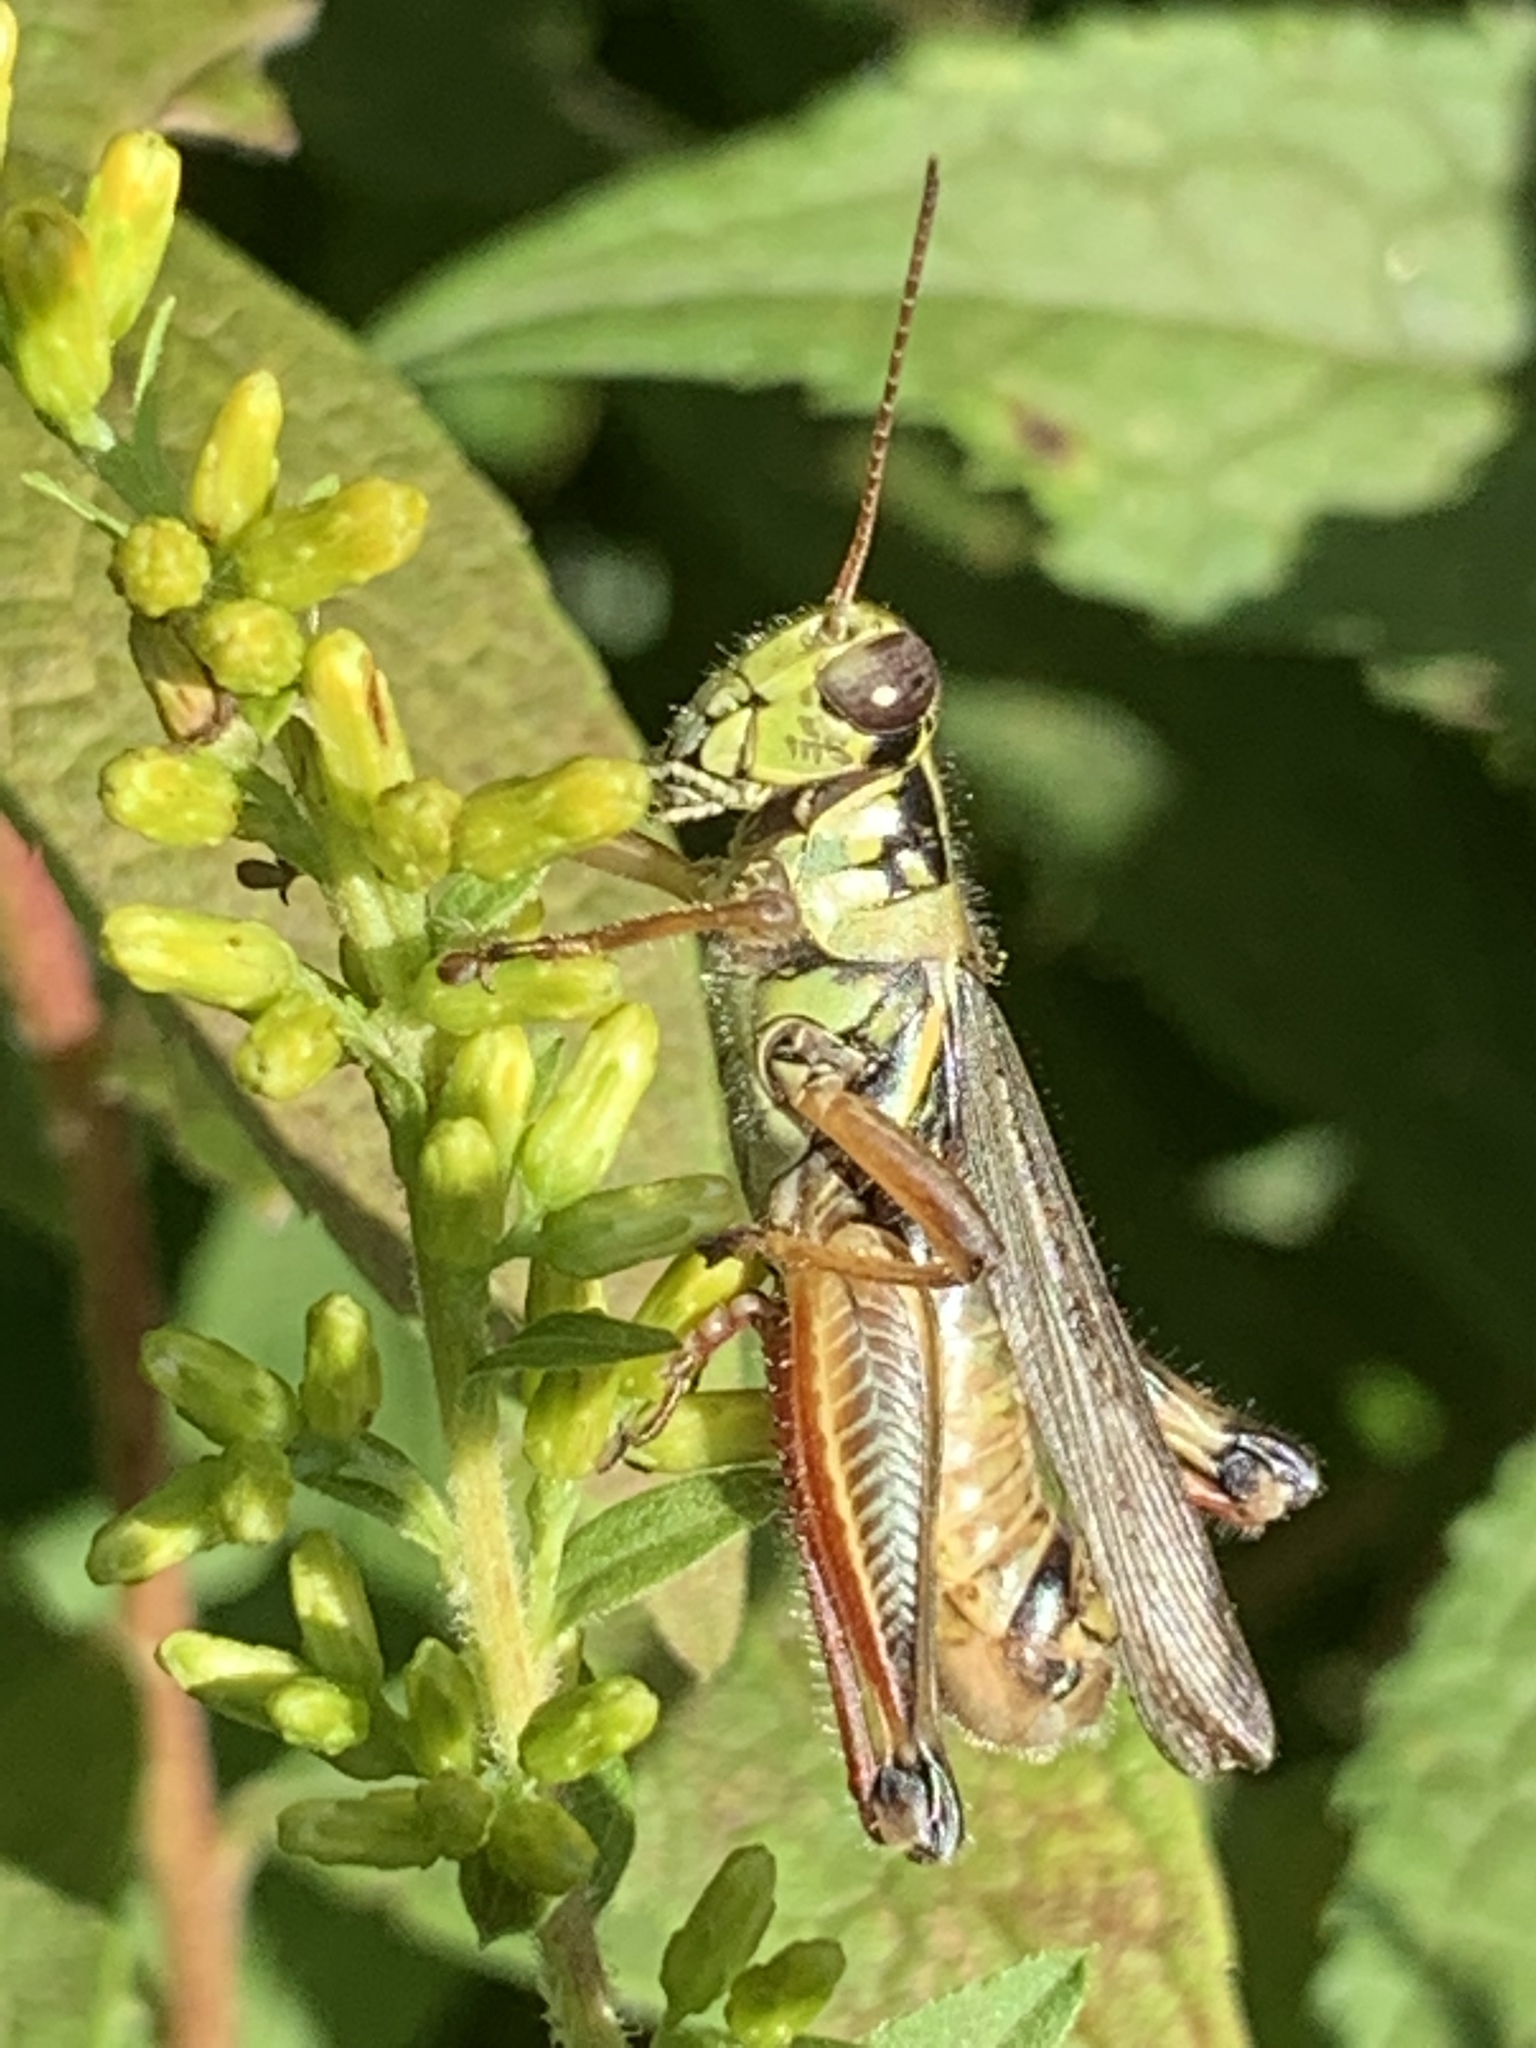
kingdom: Animalia
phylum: Arthropoda
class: Insecta
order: Orthoptera
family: Acrididae
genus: Melanoplus
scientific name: Melanoplus femurrubrum
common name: Red-legged grasshopper
